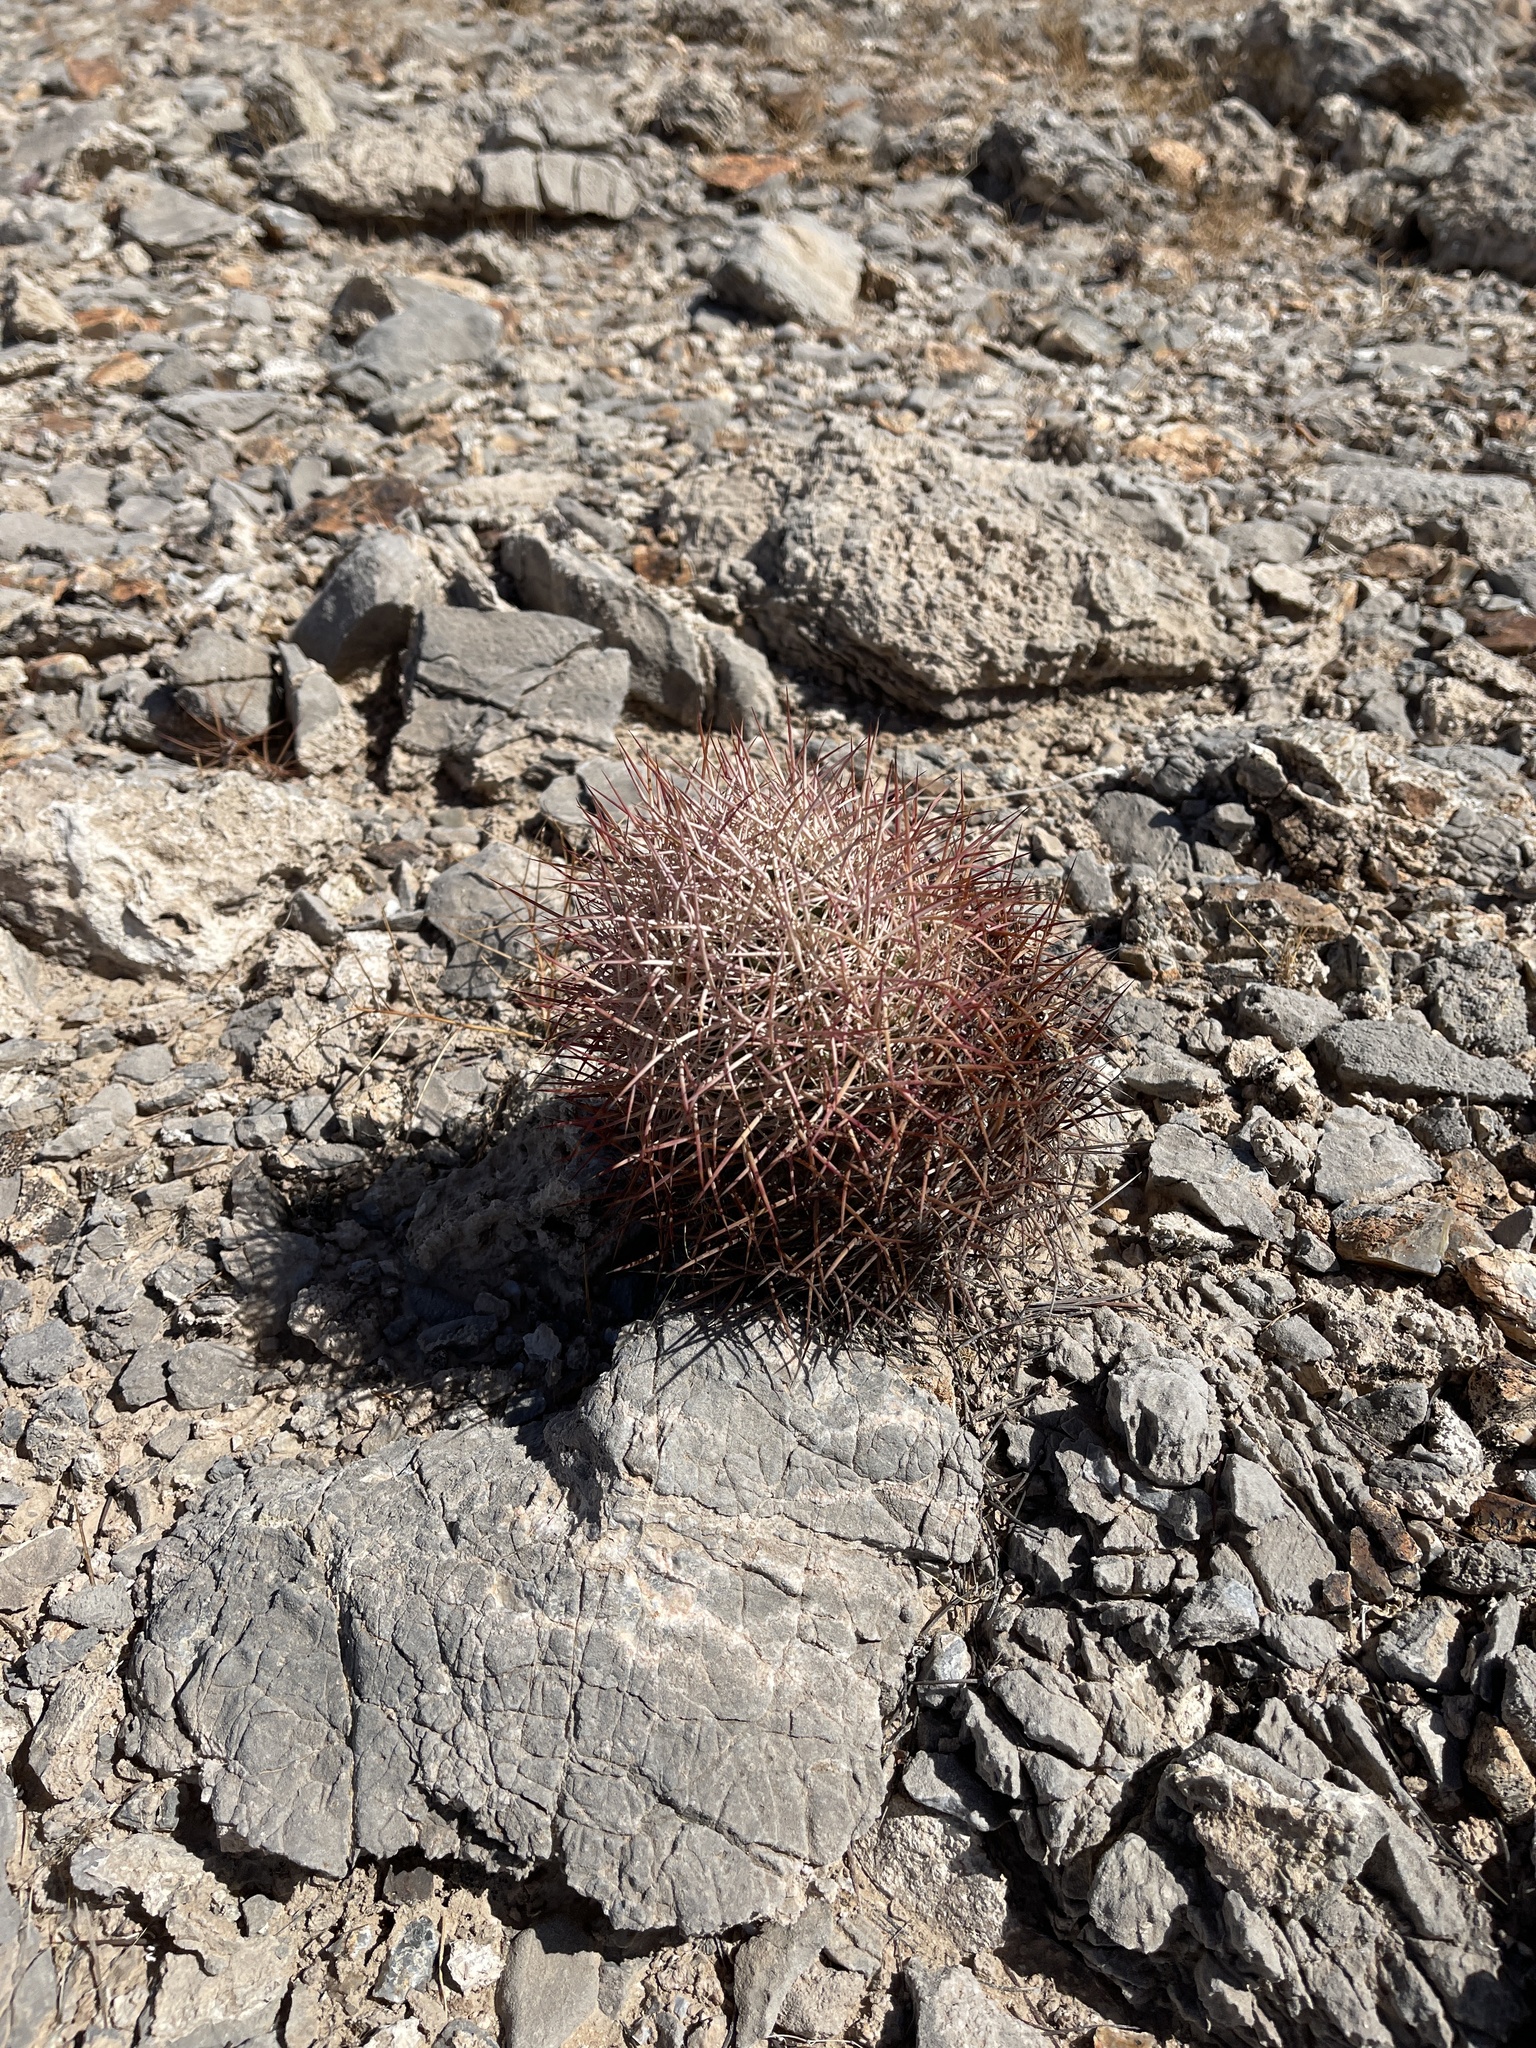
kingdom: Plantae
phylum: Tracheophyta
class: Magnoliopsida
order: Caryophyllales
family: Cactaceae
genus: Sclerocactus
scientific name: Sclerocactus johnsonii
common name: Eight-spine fishhook cactus
